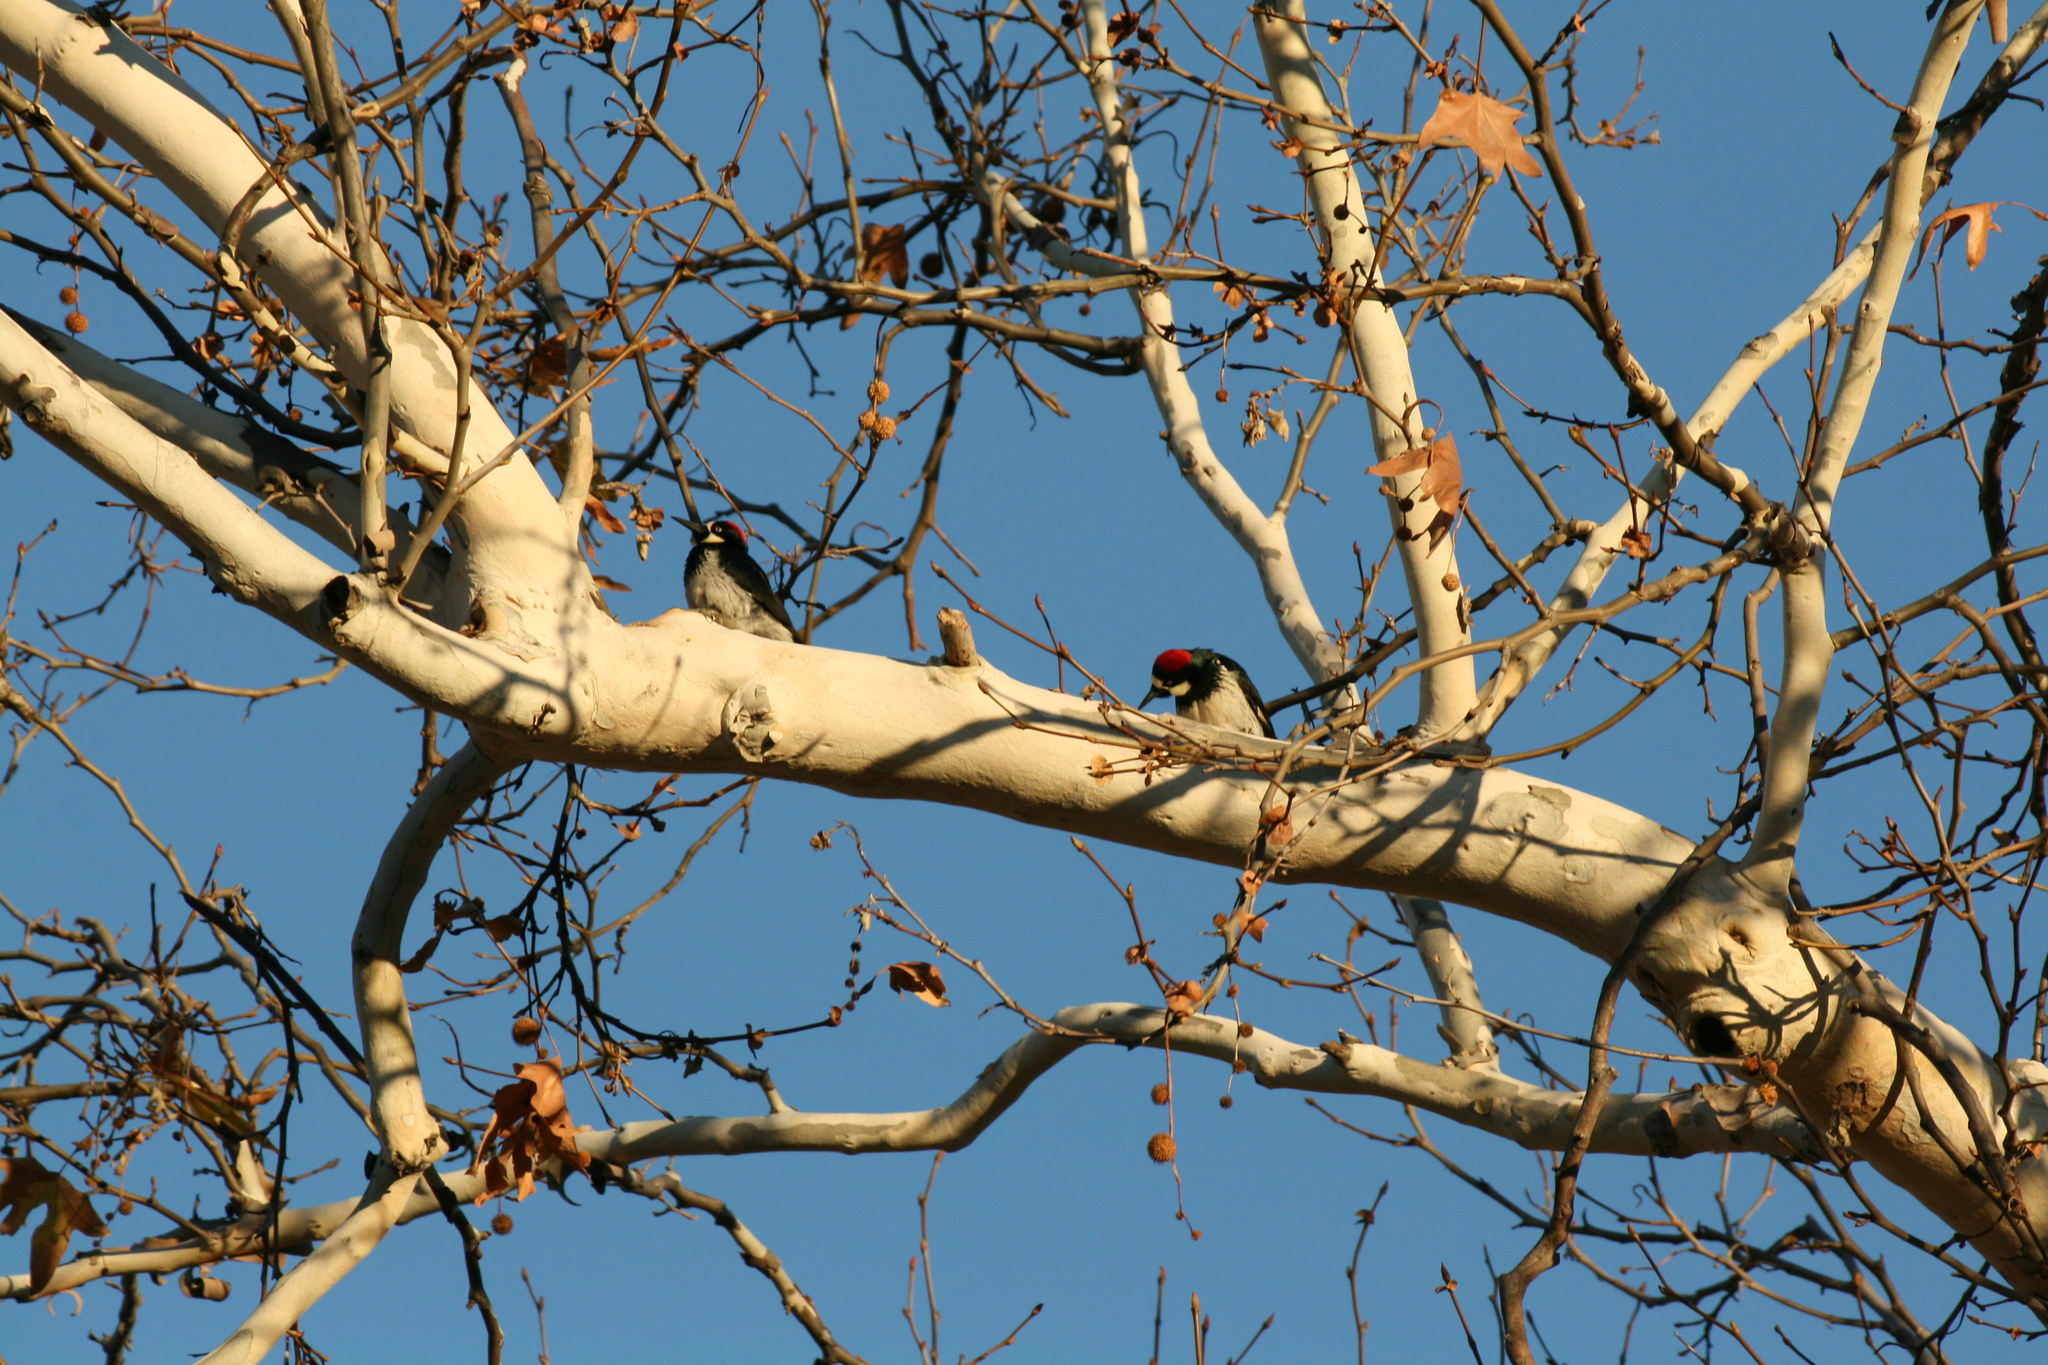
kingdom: Animalia
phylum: Chordata
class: Aves
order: Piciformes
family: Picidae
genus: Melanerpes
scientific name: Melanerpes formicivorus
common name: Acorn woodpecker
